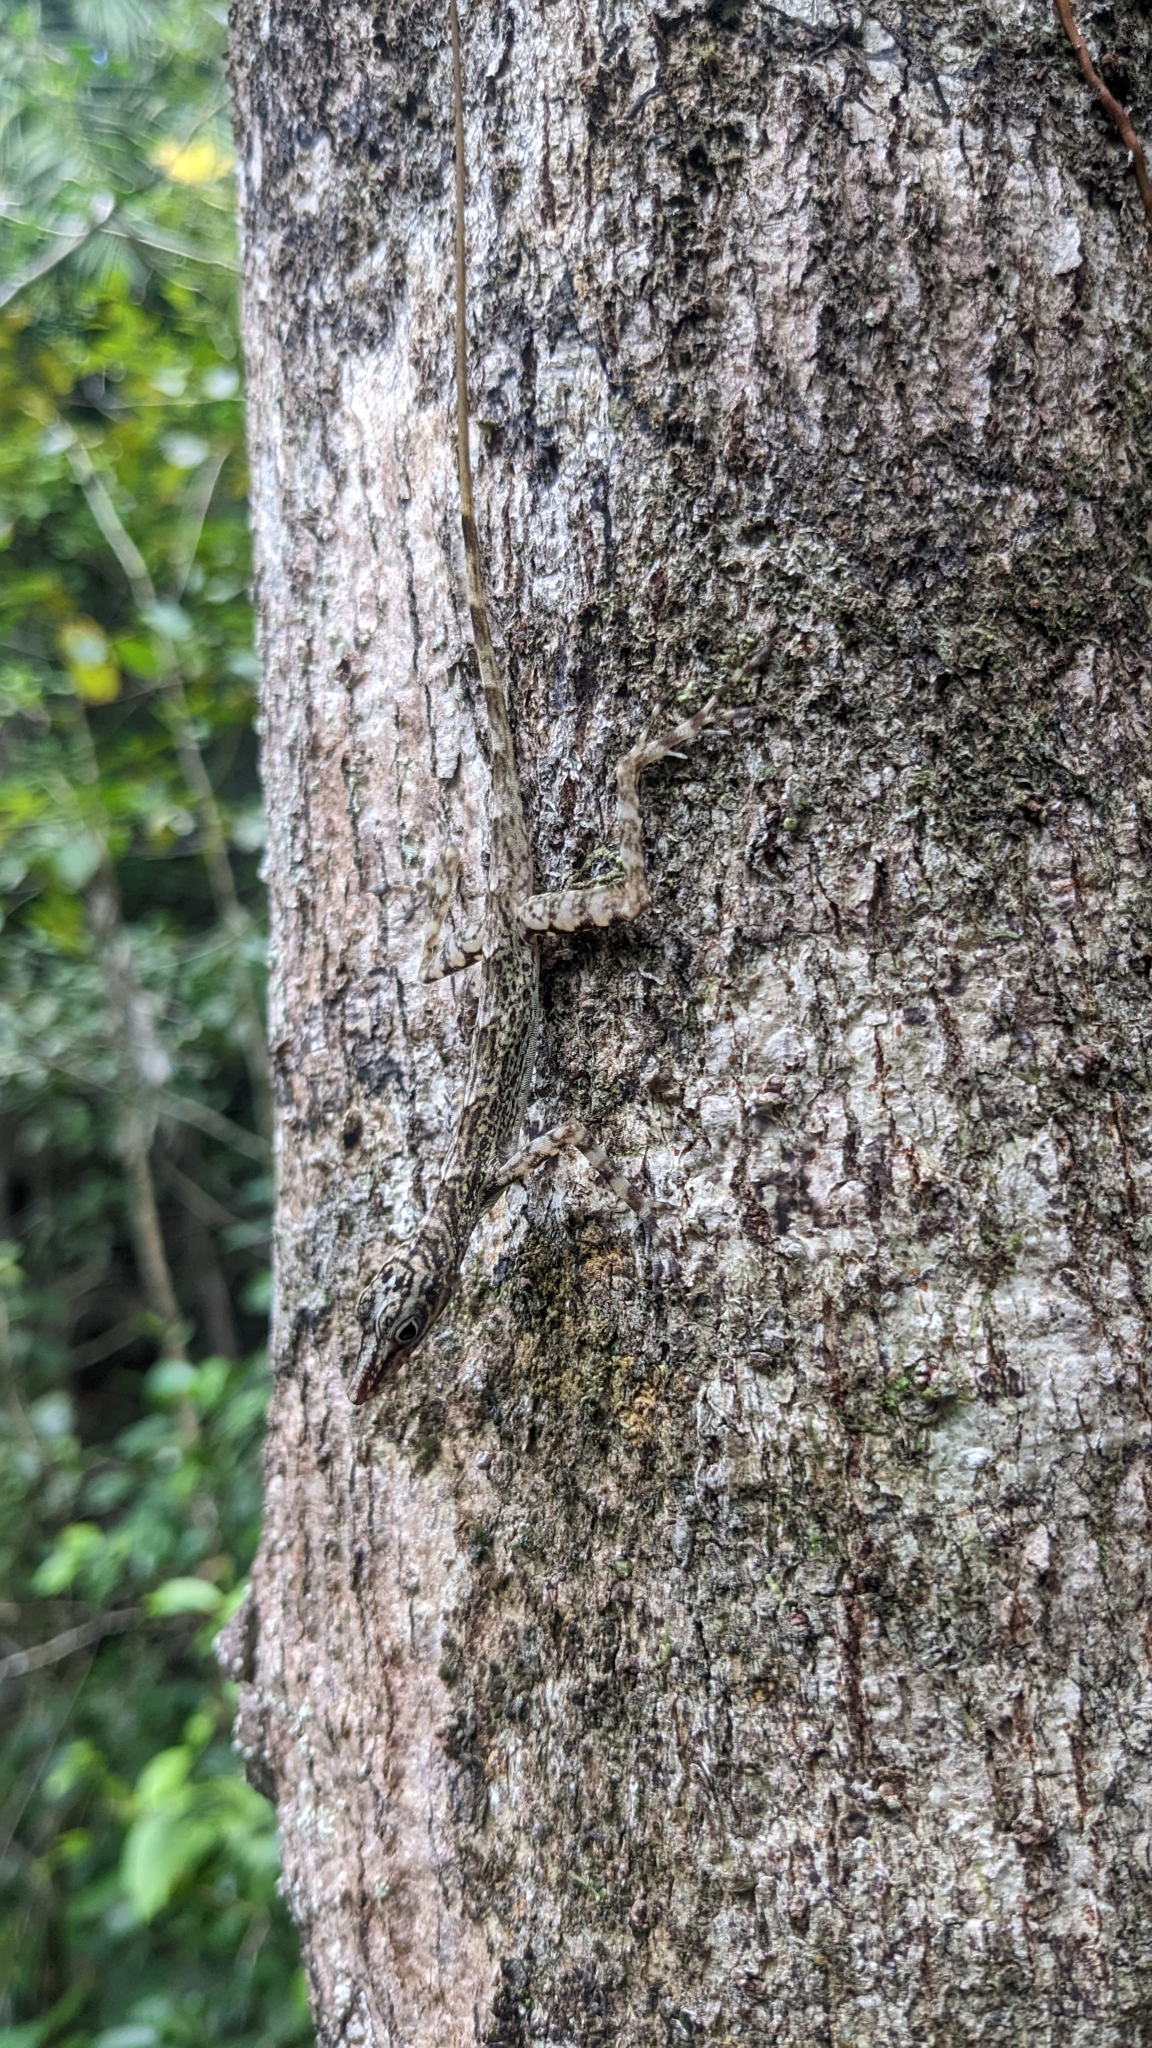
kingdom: Animalia
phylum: Chordata
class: Squamata
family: Dactyloidae
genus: Anolis
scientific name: Anolis argenteolus
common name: Guantanamo anole
